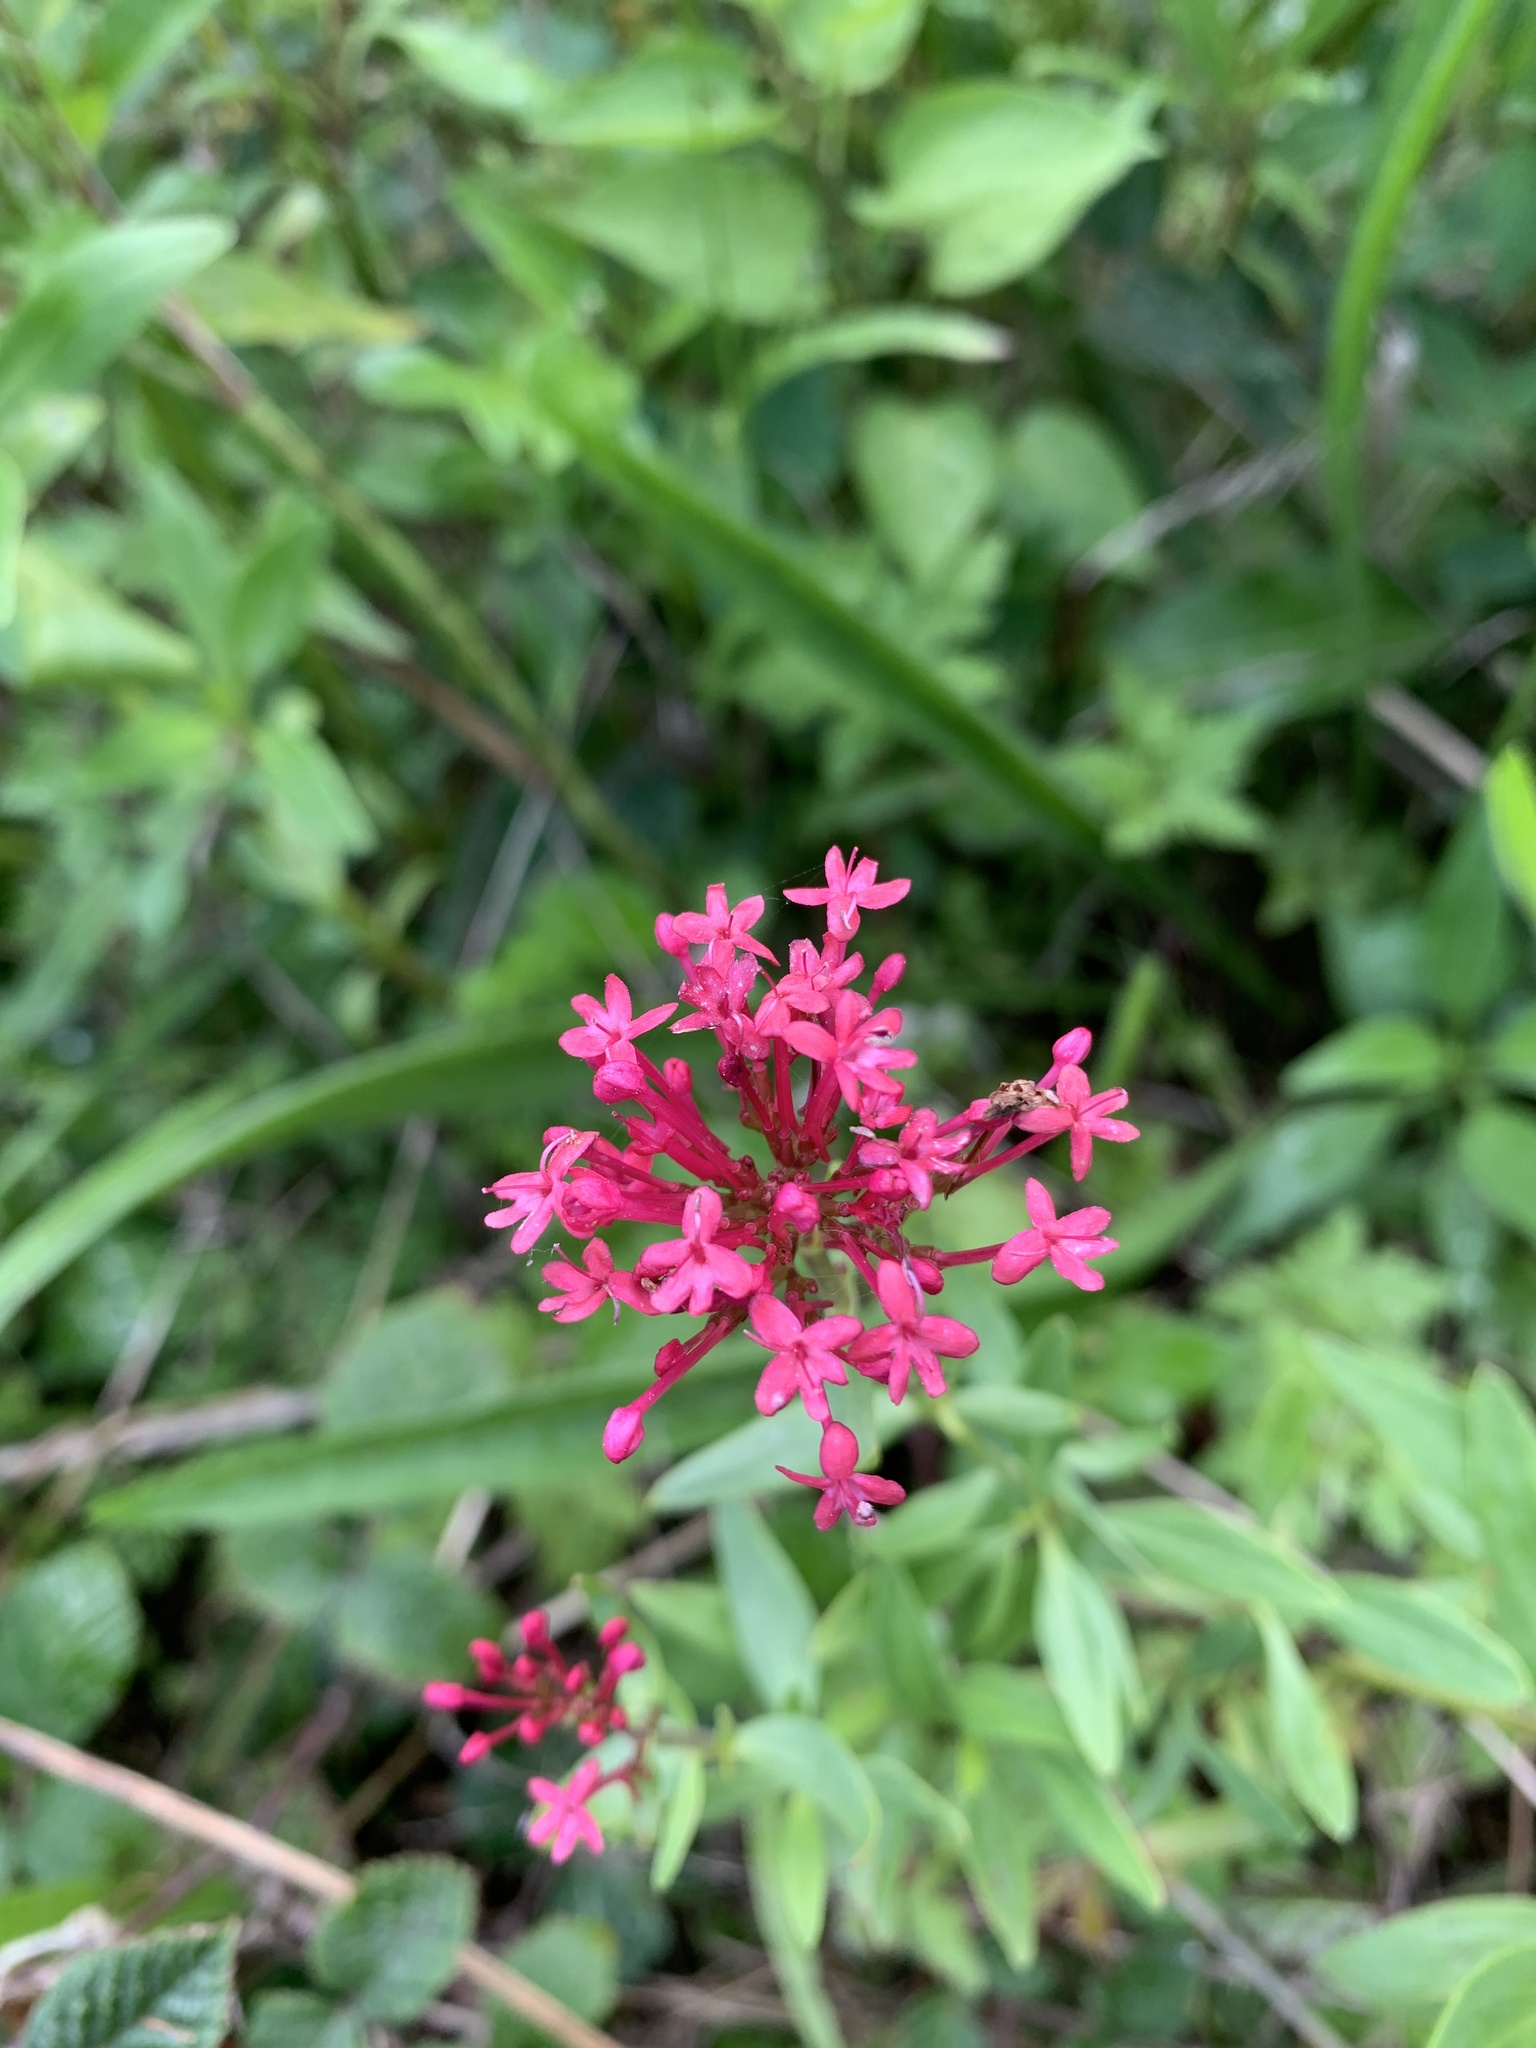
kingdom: Plantae
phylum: Tracheophyta
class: Magnoliopsida
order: Dipsacales
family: Caprifoliaceae
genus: Centranthus
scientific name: Centranthus ruber
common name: Red valerian
